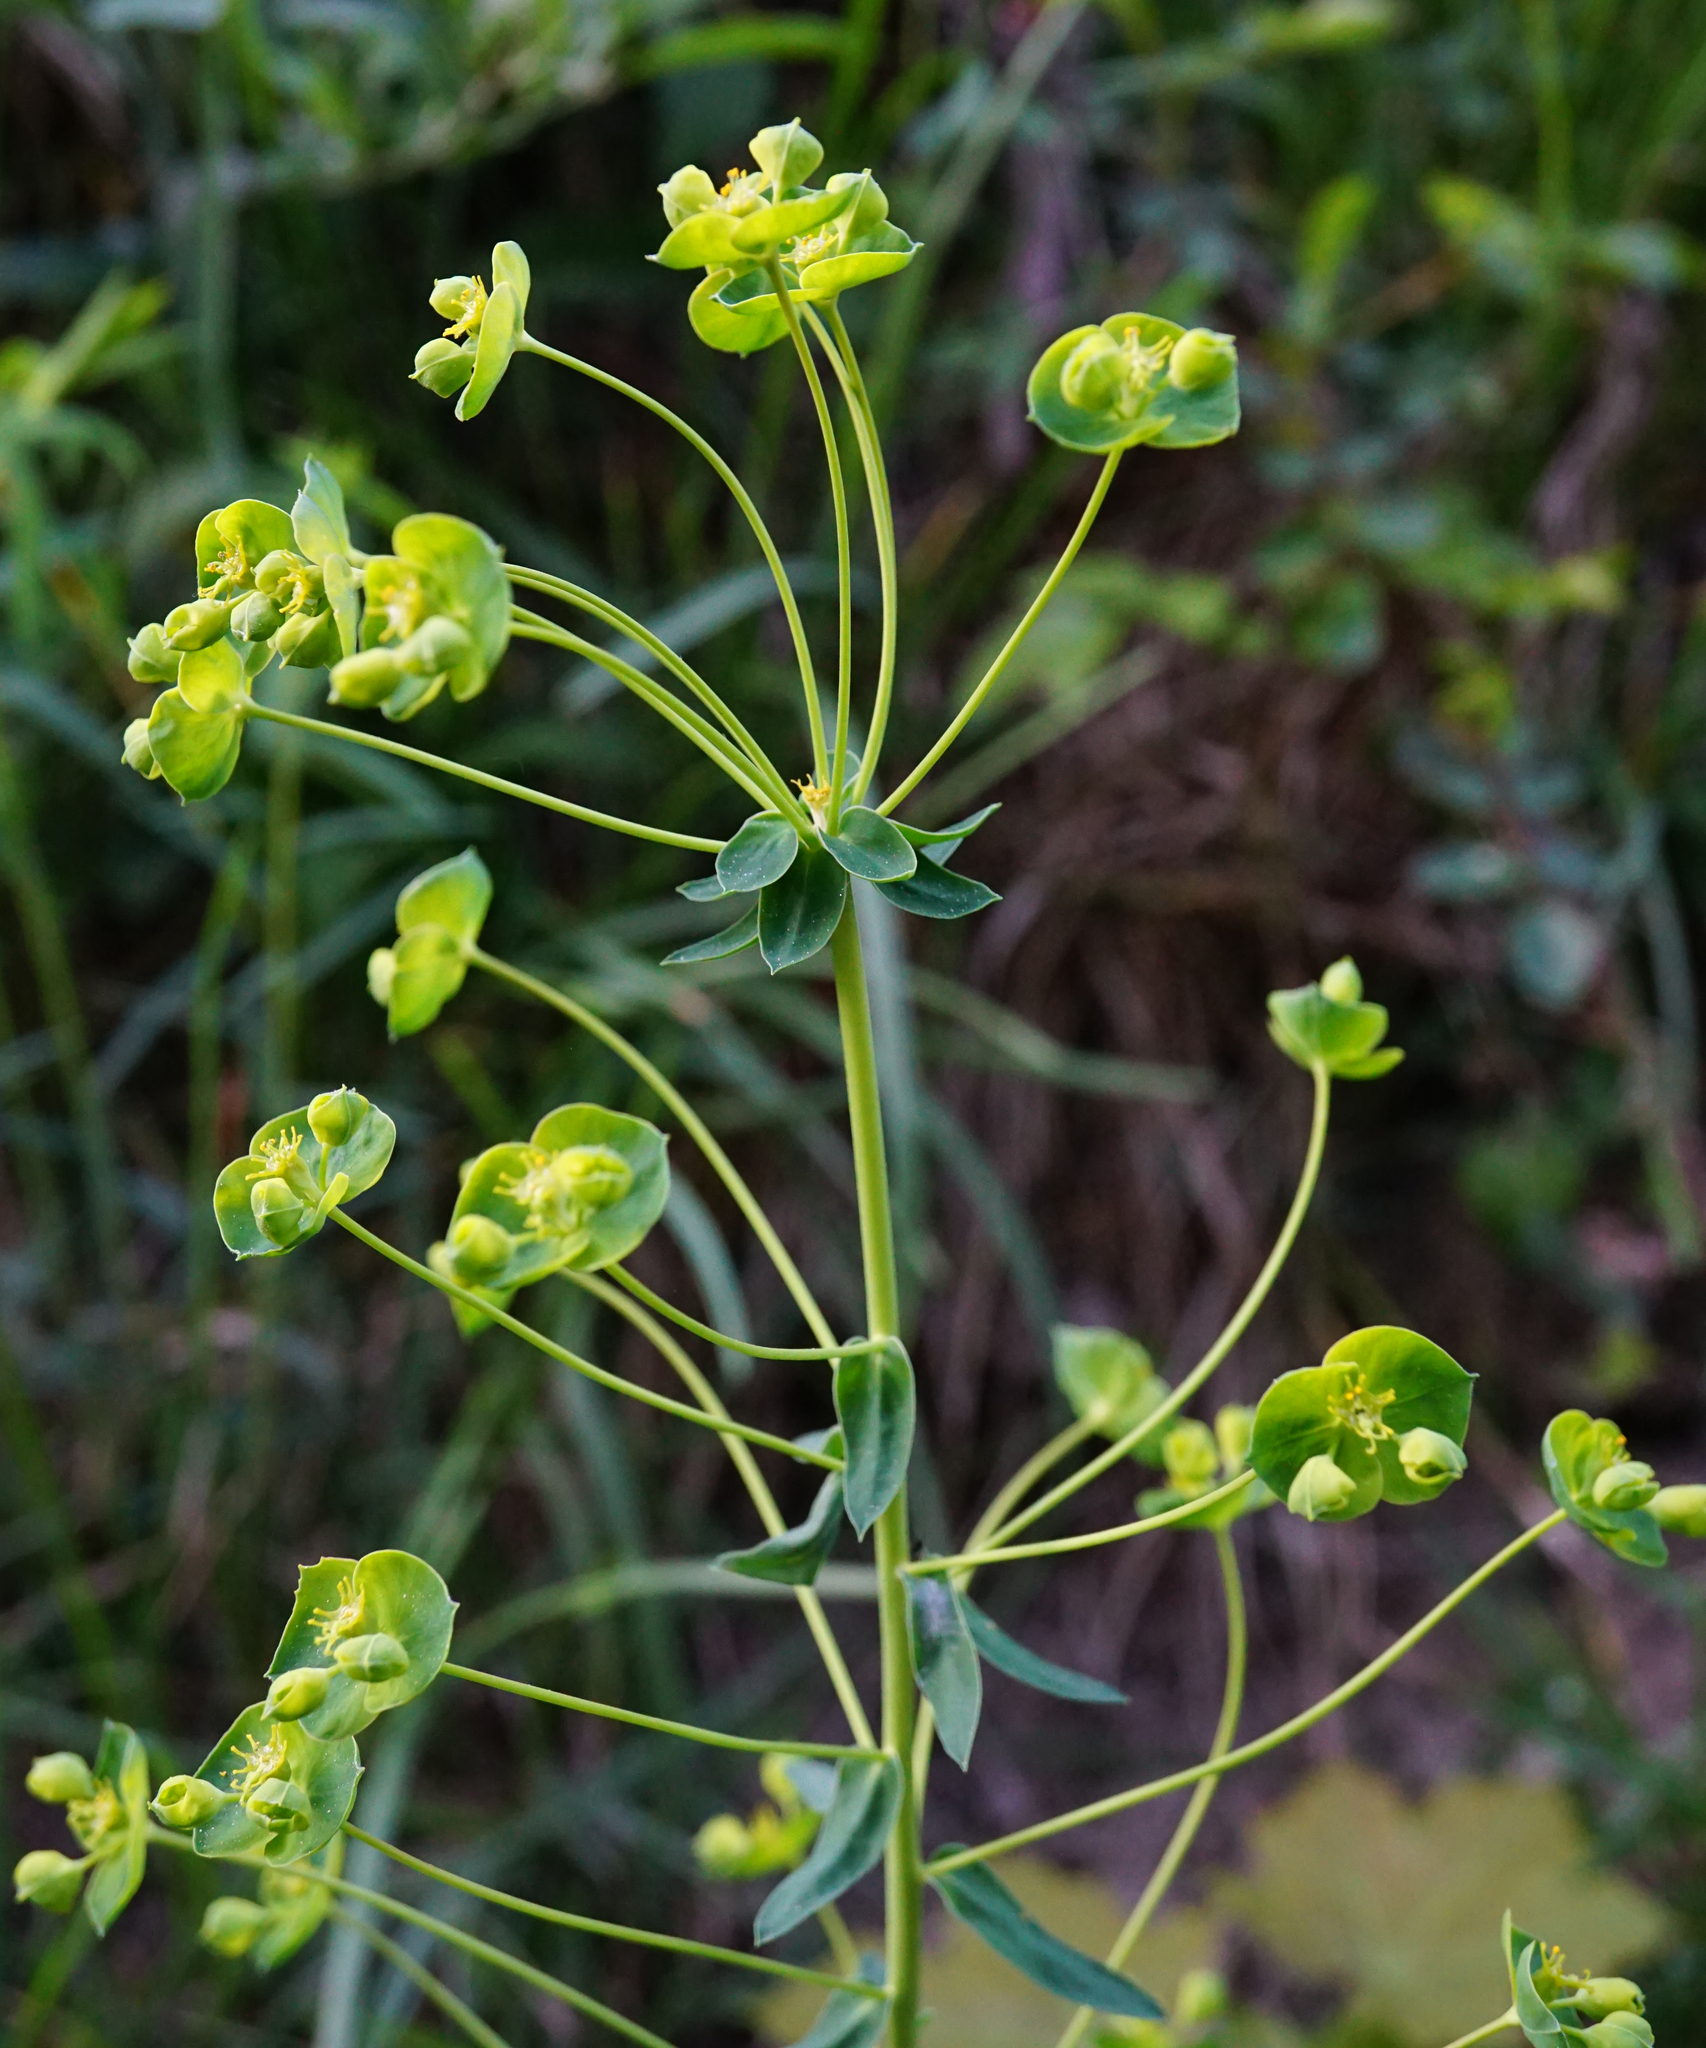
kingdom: Plantae
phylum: Tracheophyta
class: Magnoliopsida
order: Malpighiales
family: Euphorbiaceae
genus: Euphorbia
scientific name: Euphorbia virgata
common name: Leafy spurge
